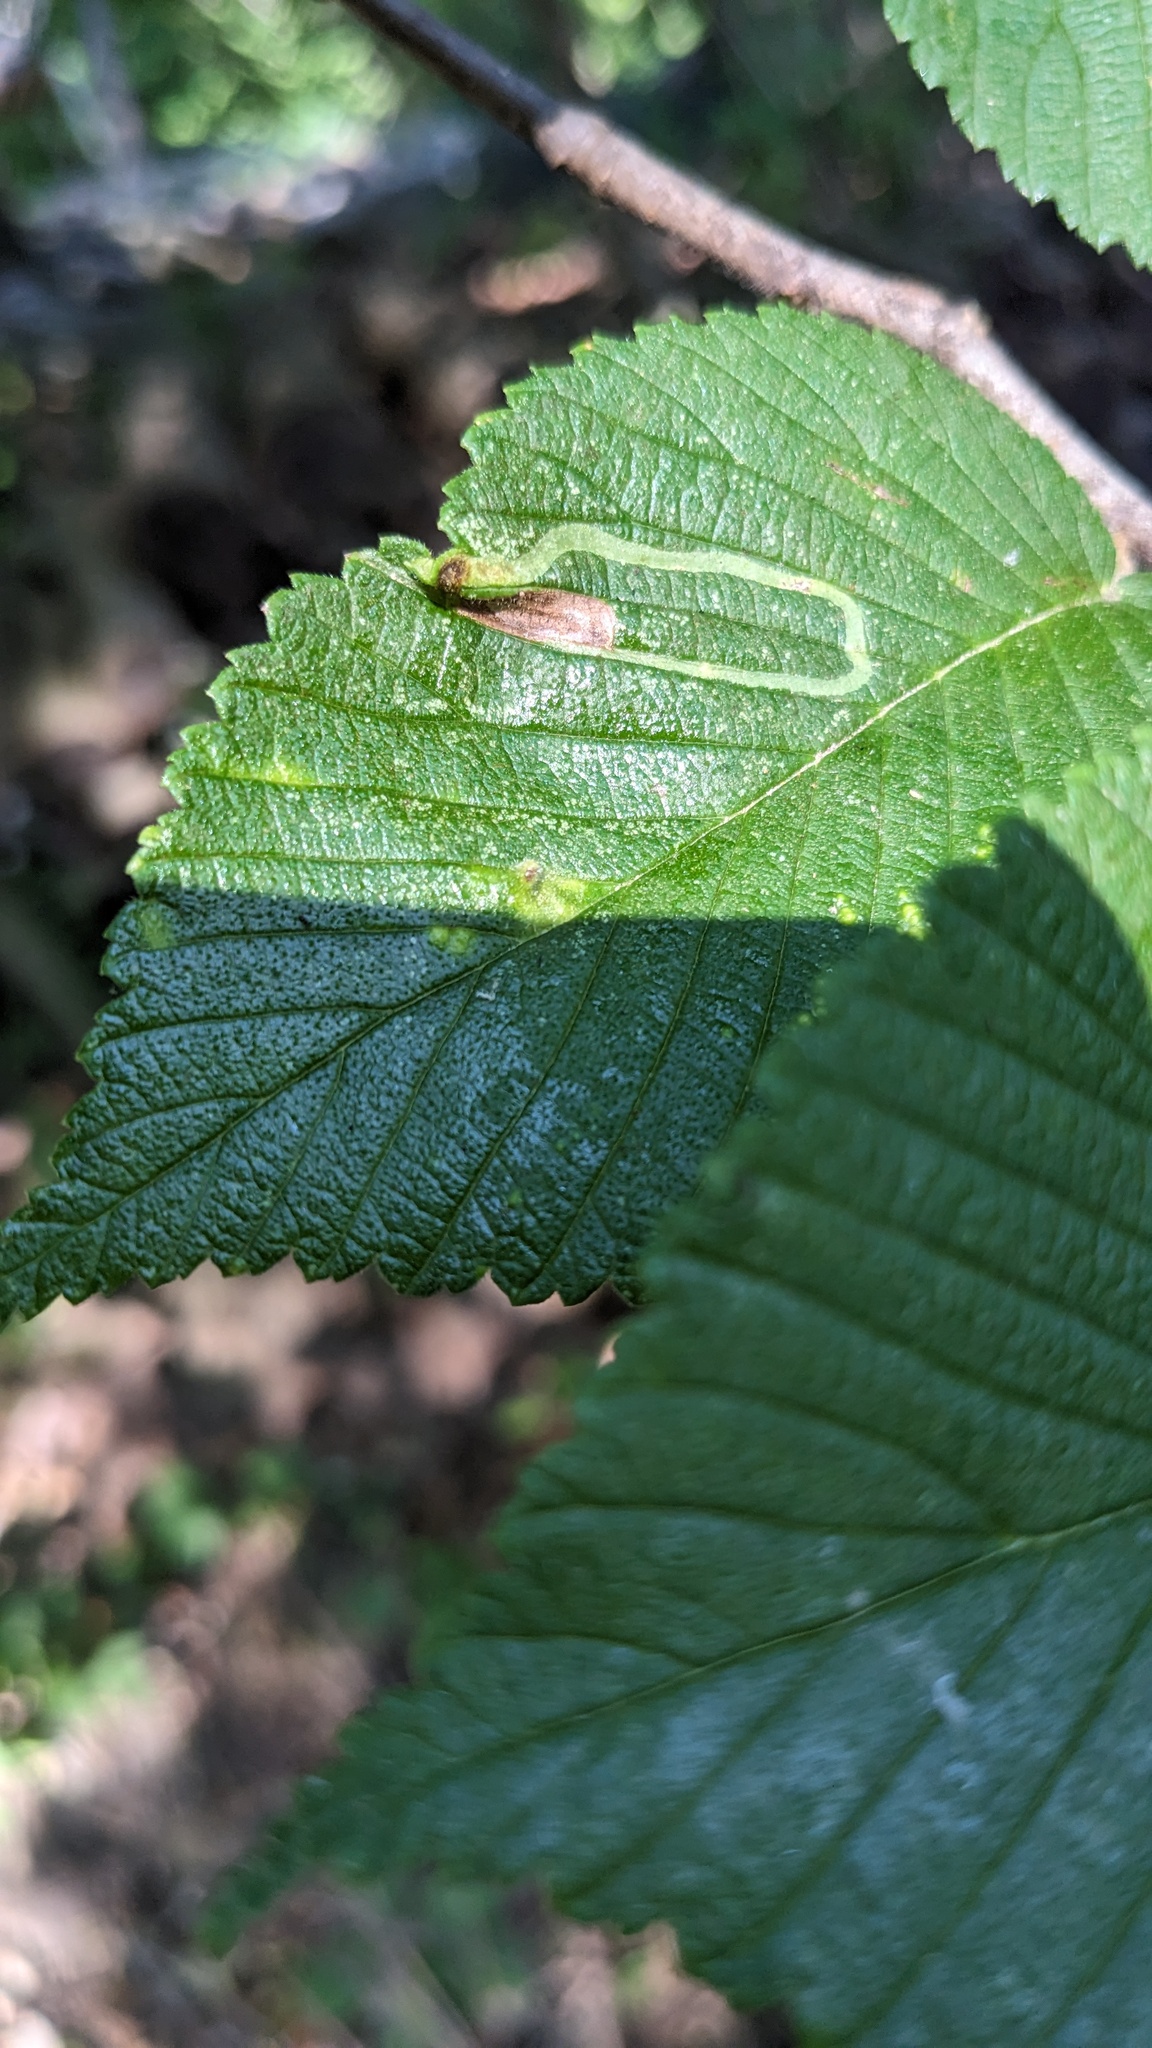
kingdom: Animalia
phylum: Arthropoda
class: Insecta
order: Diptera
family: Agromyzidae
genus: Agromyza
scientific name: Agromyza aristata
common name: Elm agromyzid leafminer
